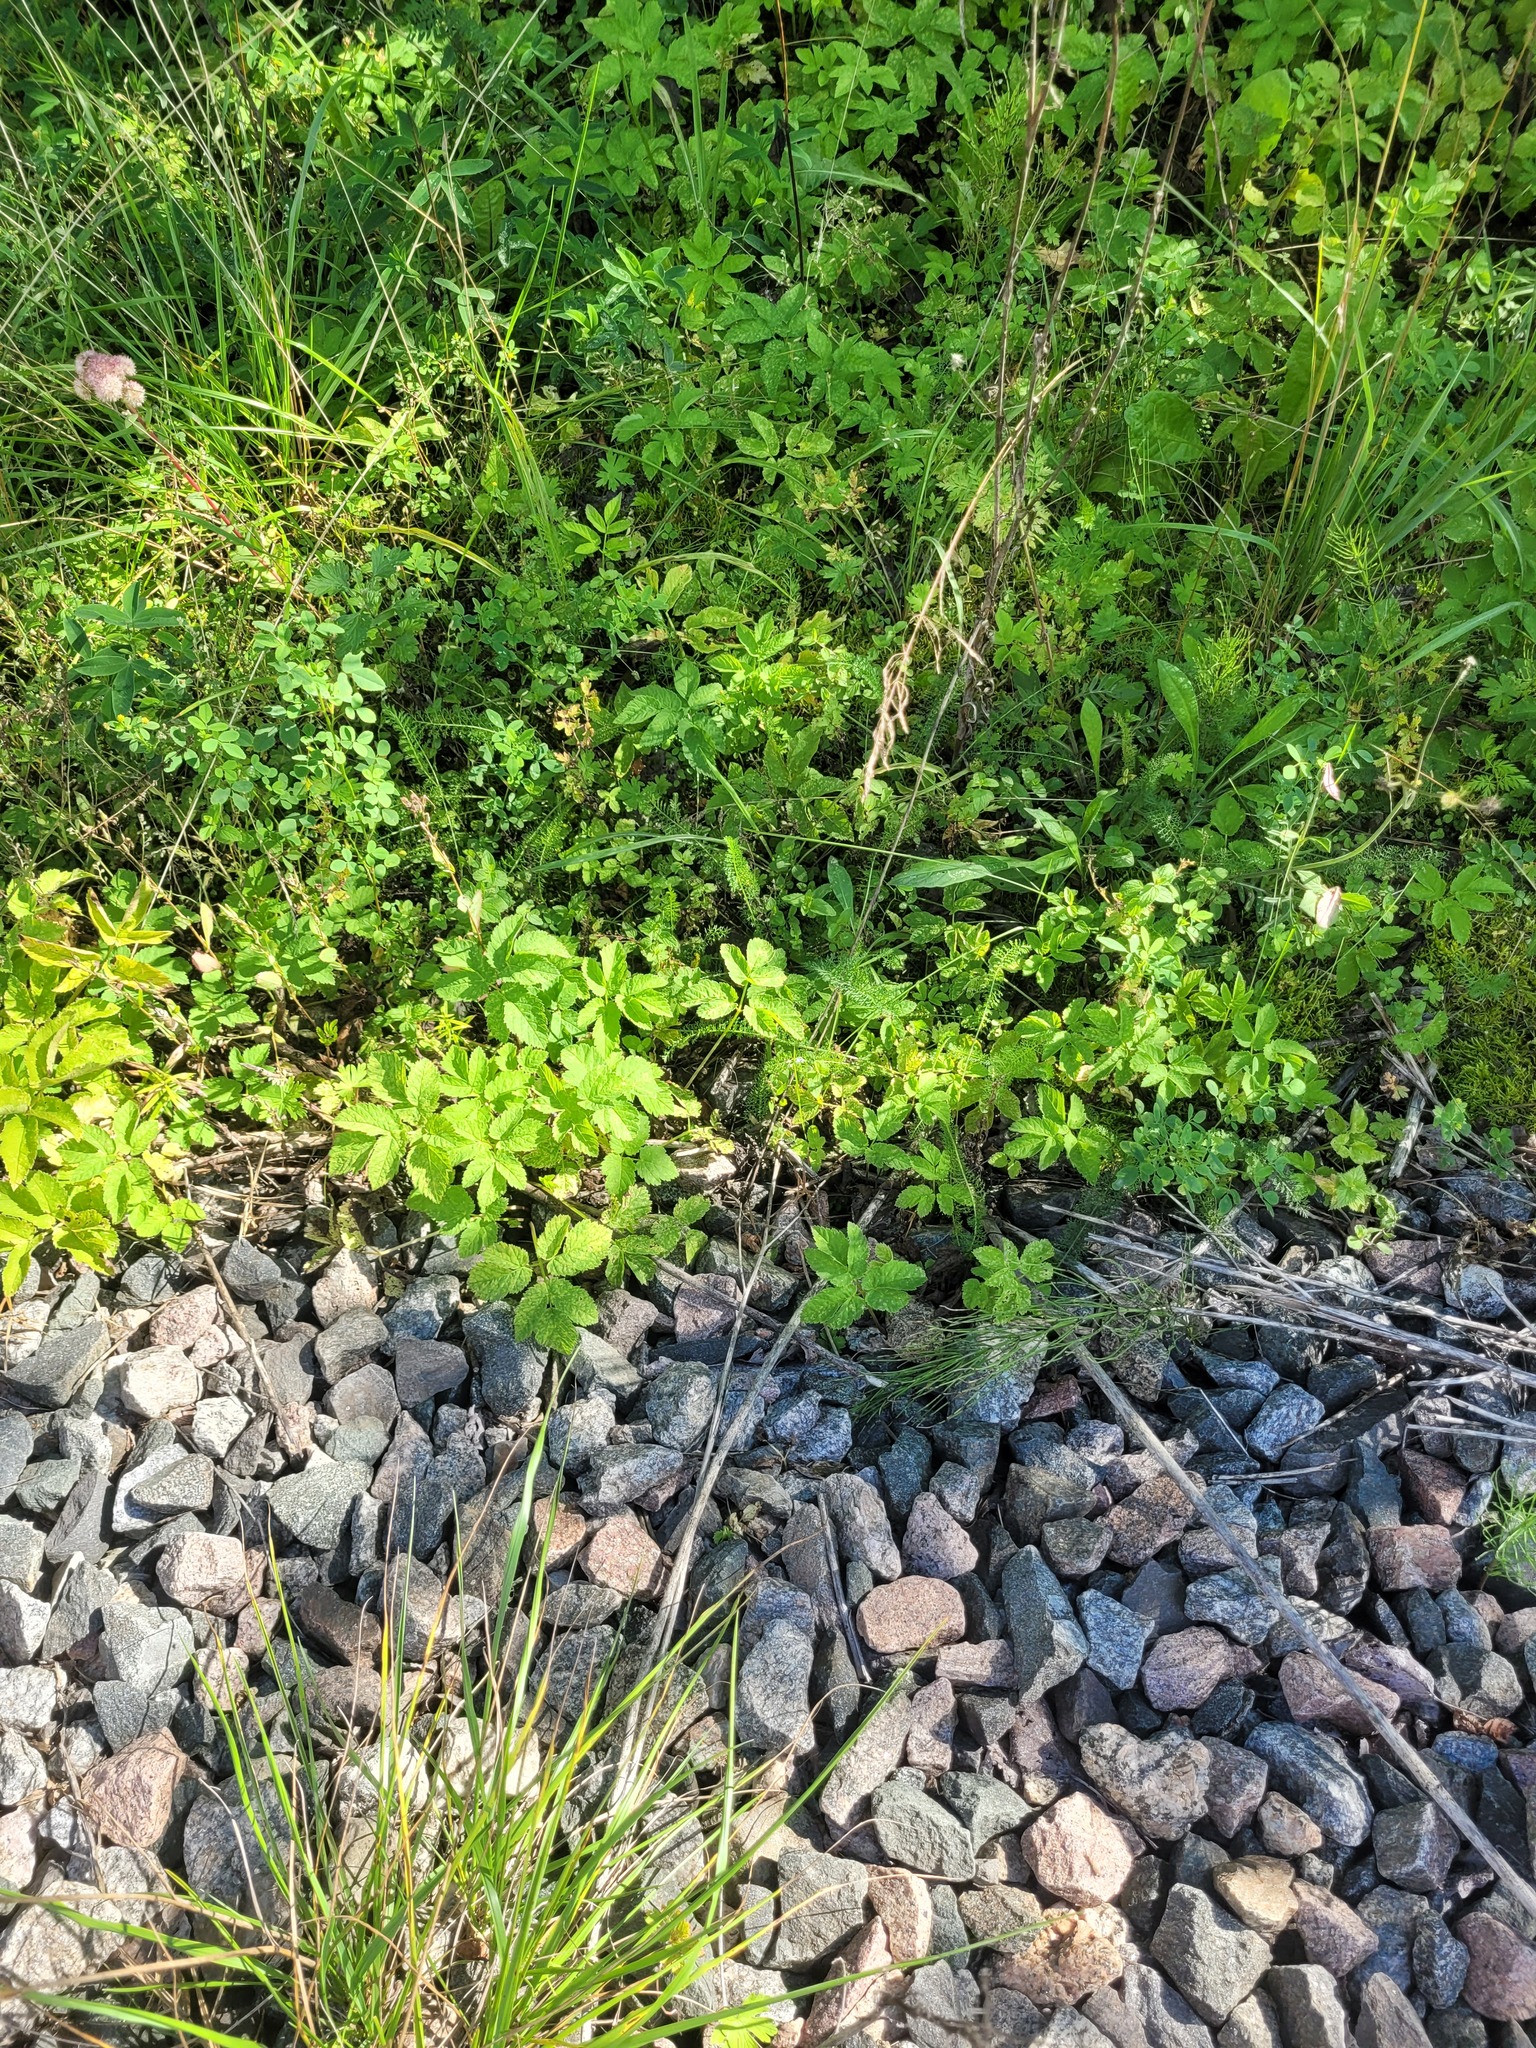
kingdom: Plantae
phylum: Tracheophyta
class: Magnoliopsida
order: Apiales
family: Apiaceae
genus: Aegopodium
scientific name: Aegopodium podagraria
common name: Ground-elder
